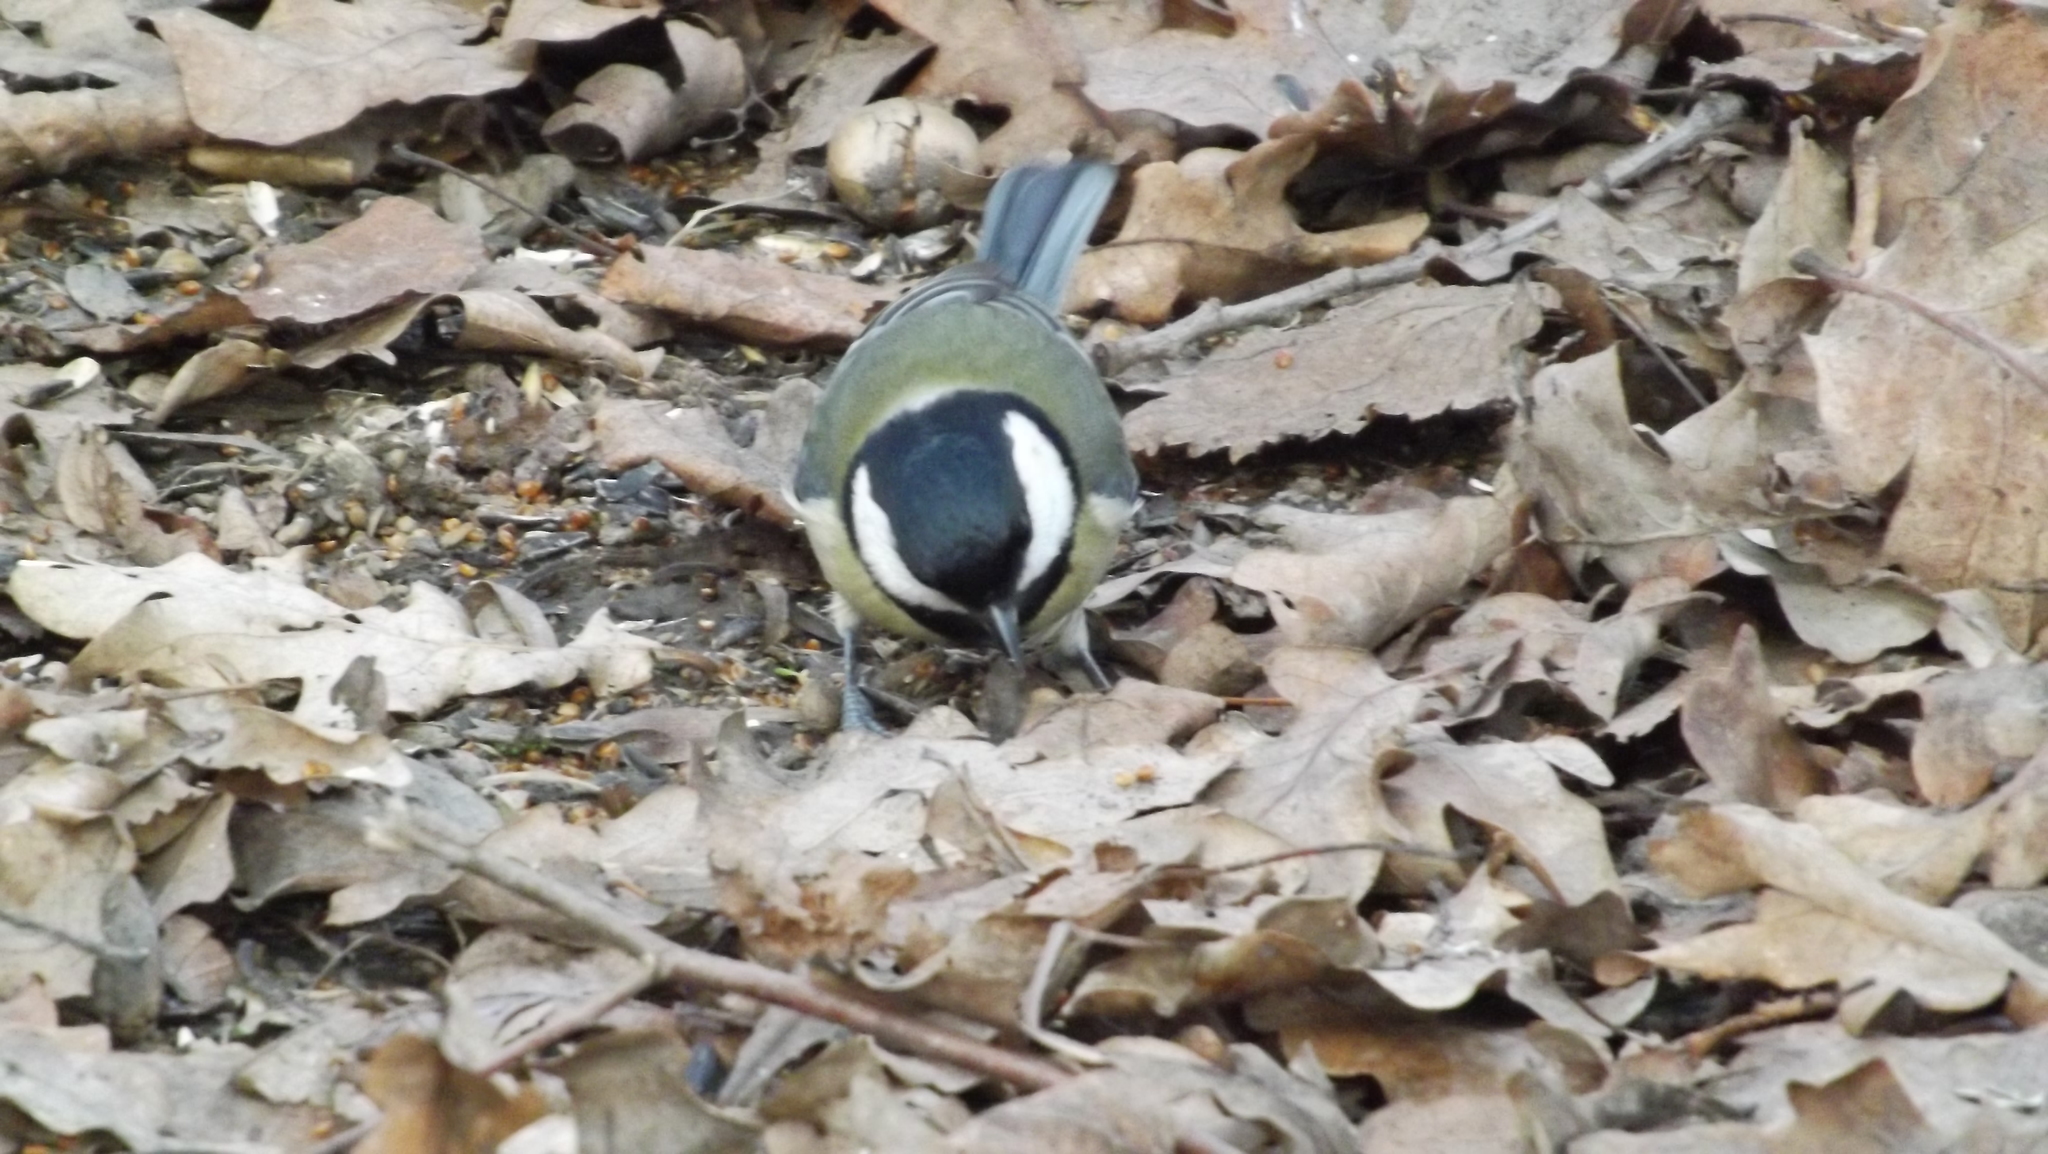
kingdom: Animalia
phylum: Chordata
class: Aves
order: Passeriformes
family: Paridae
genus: Parus
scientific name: Parus major
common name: Great tit
